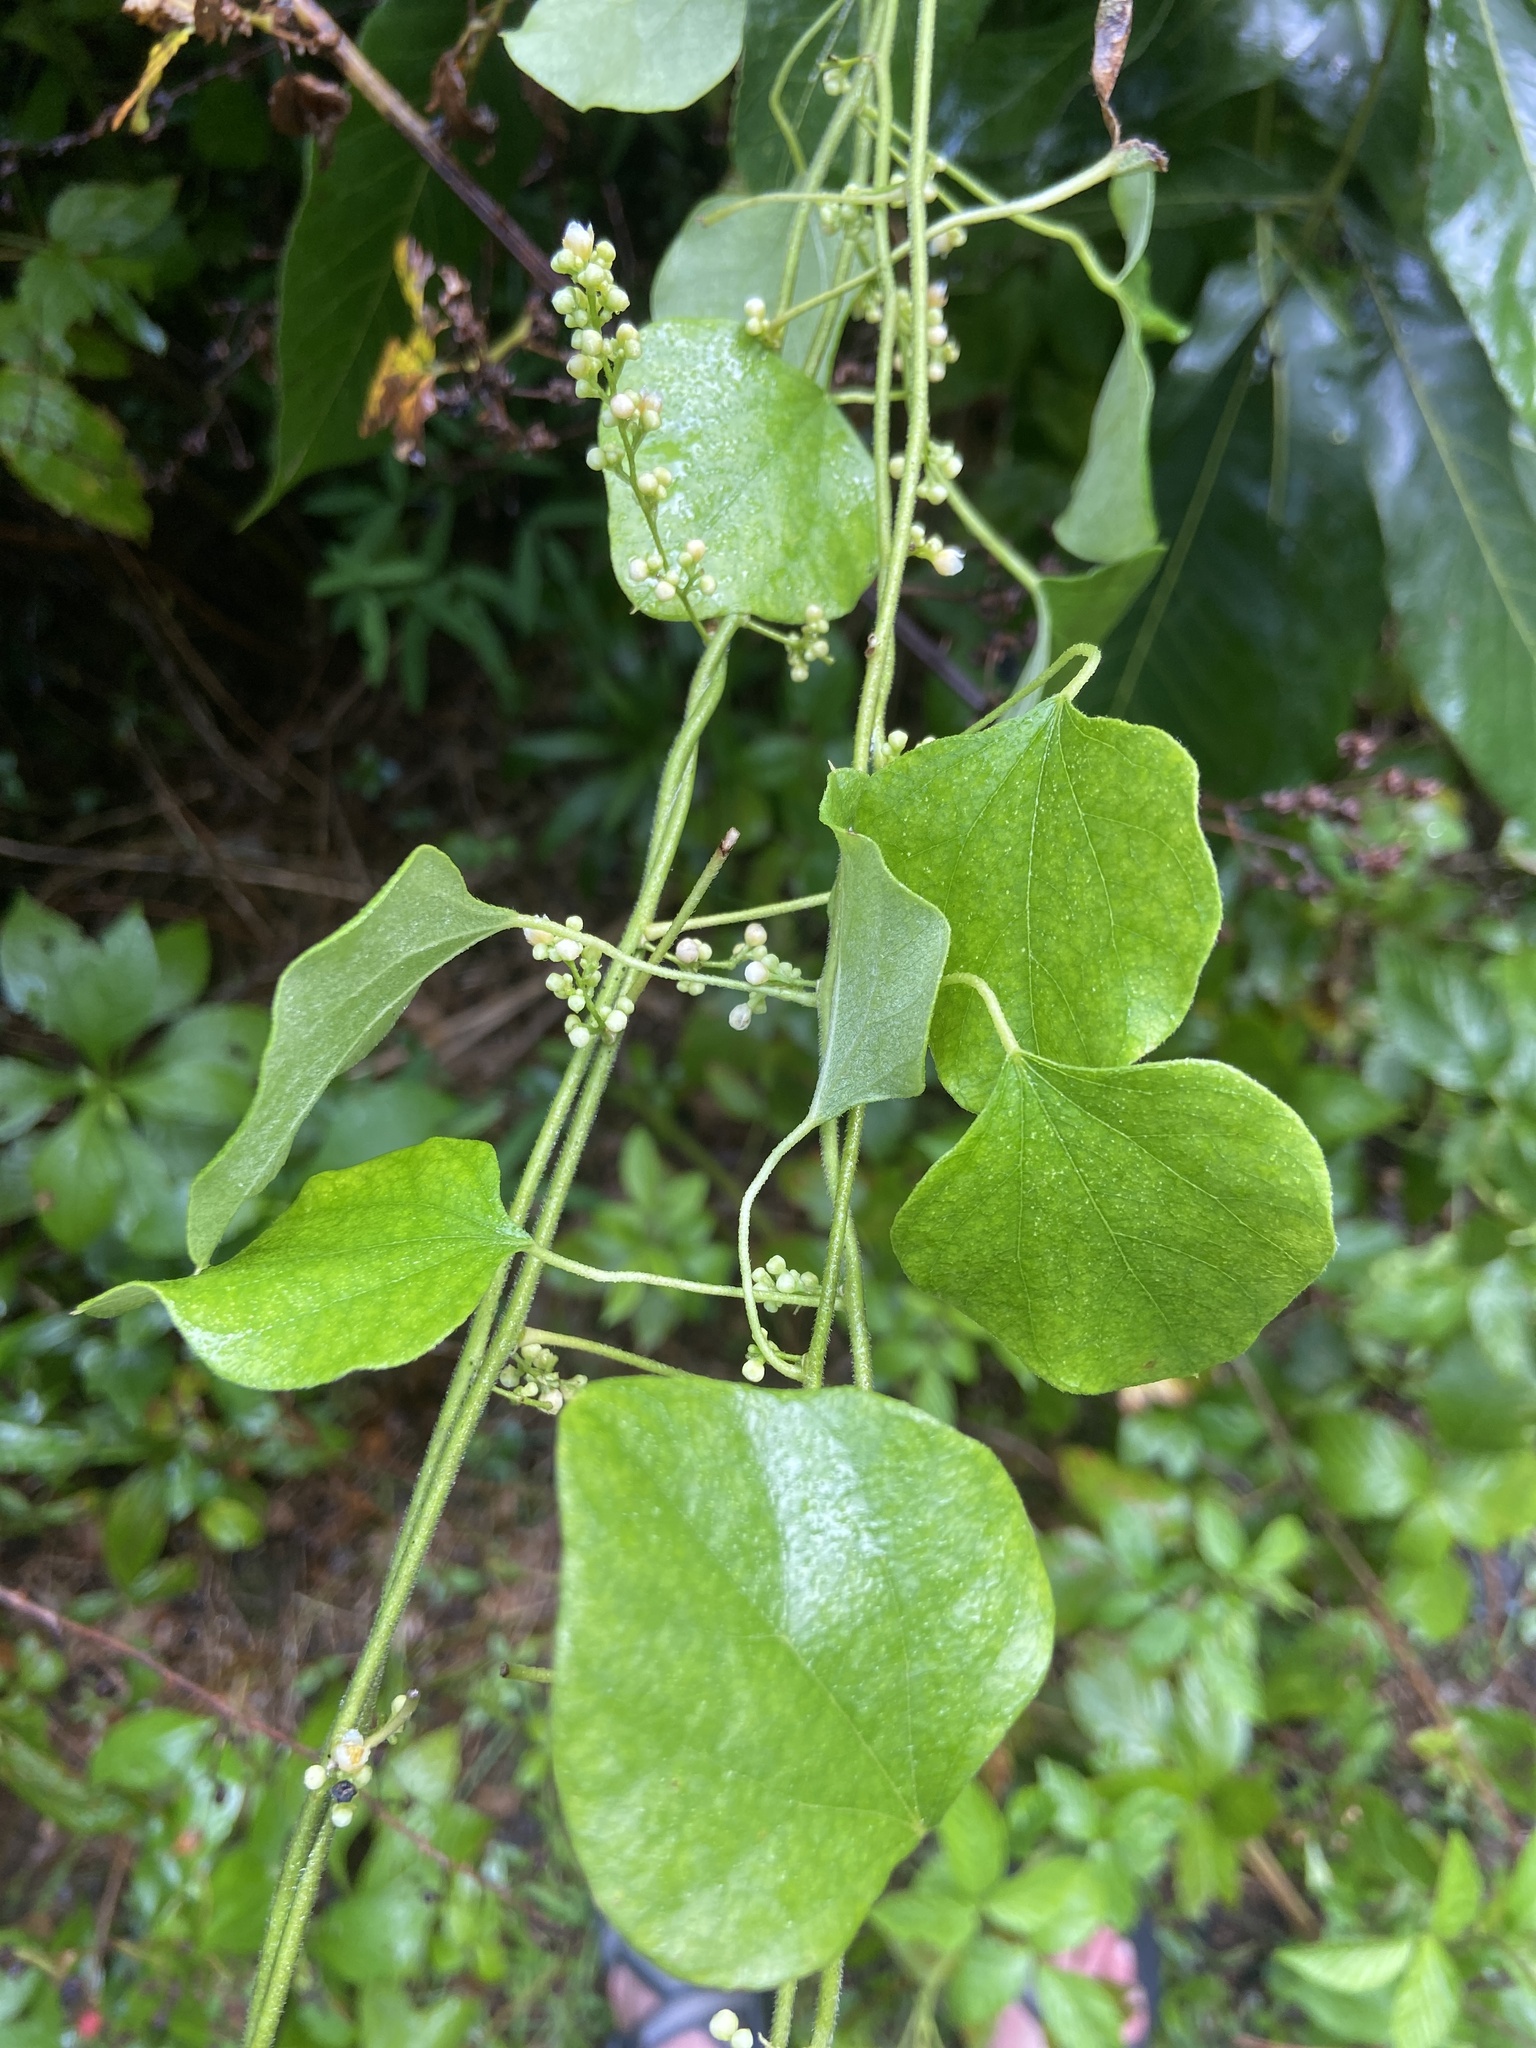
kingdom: Plantae
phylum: Tracheophyta
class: Magnoliopsida
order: Ranunculales
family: Menispermaceae
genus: Cocculus
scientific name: Cocculus carolinus
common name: Carolina moonseed
